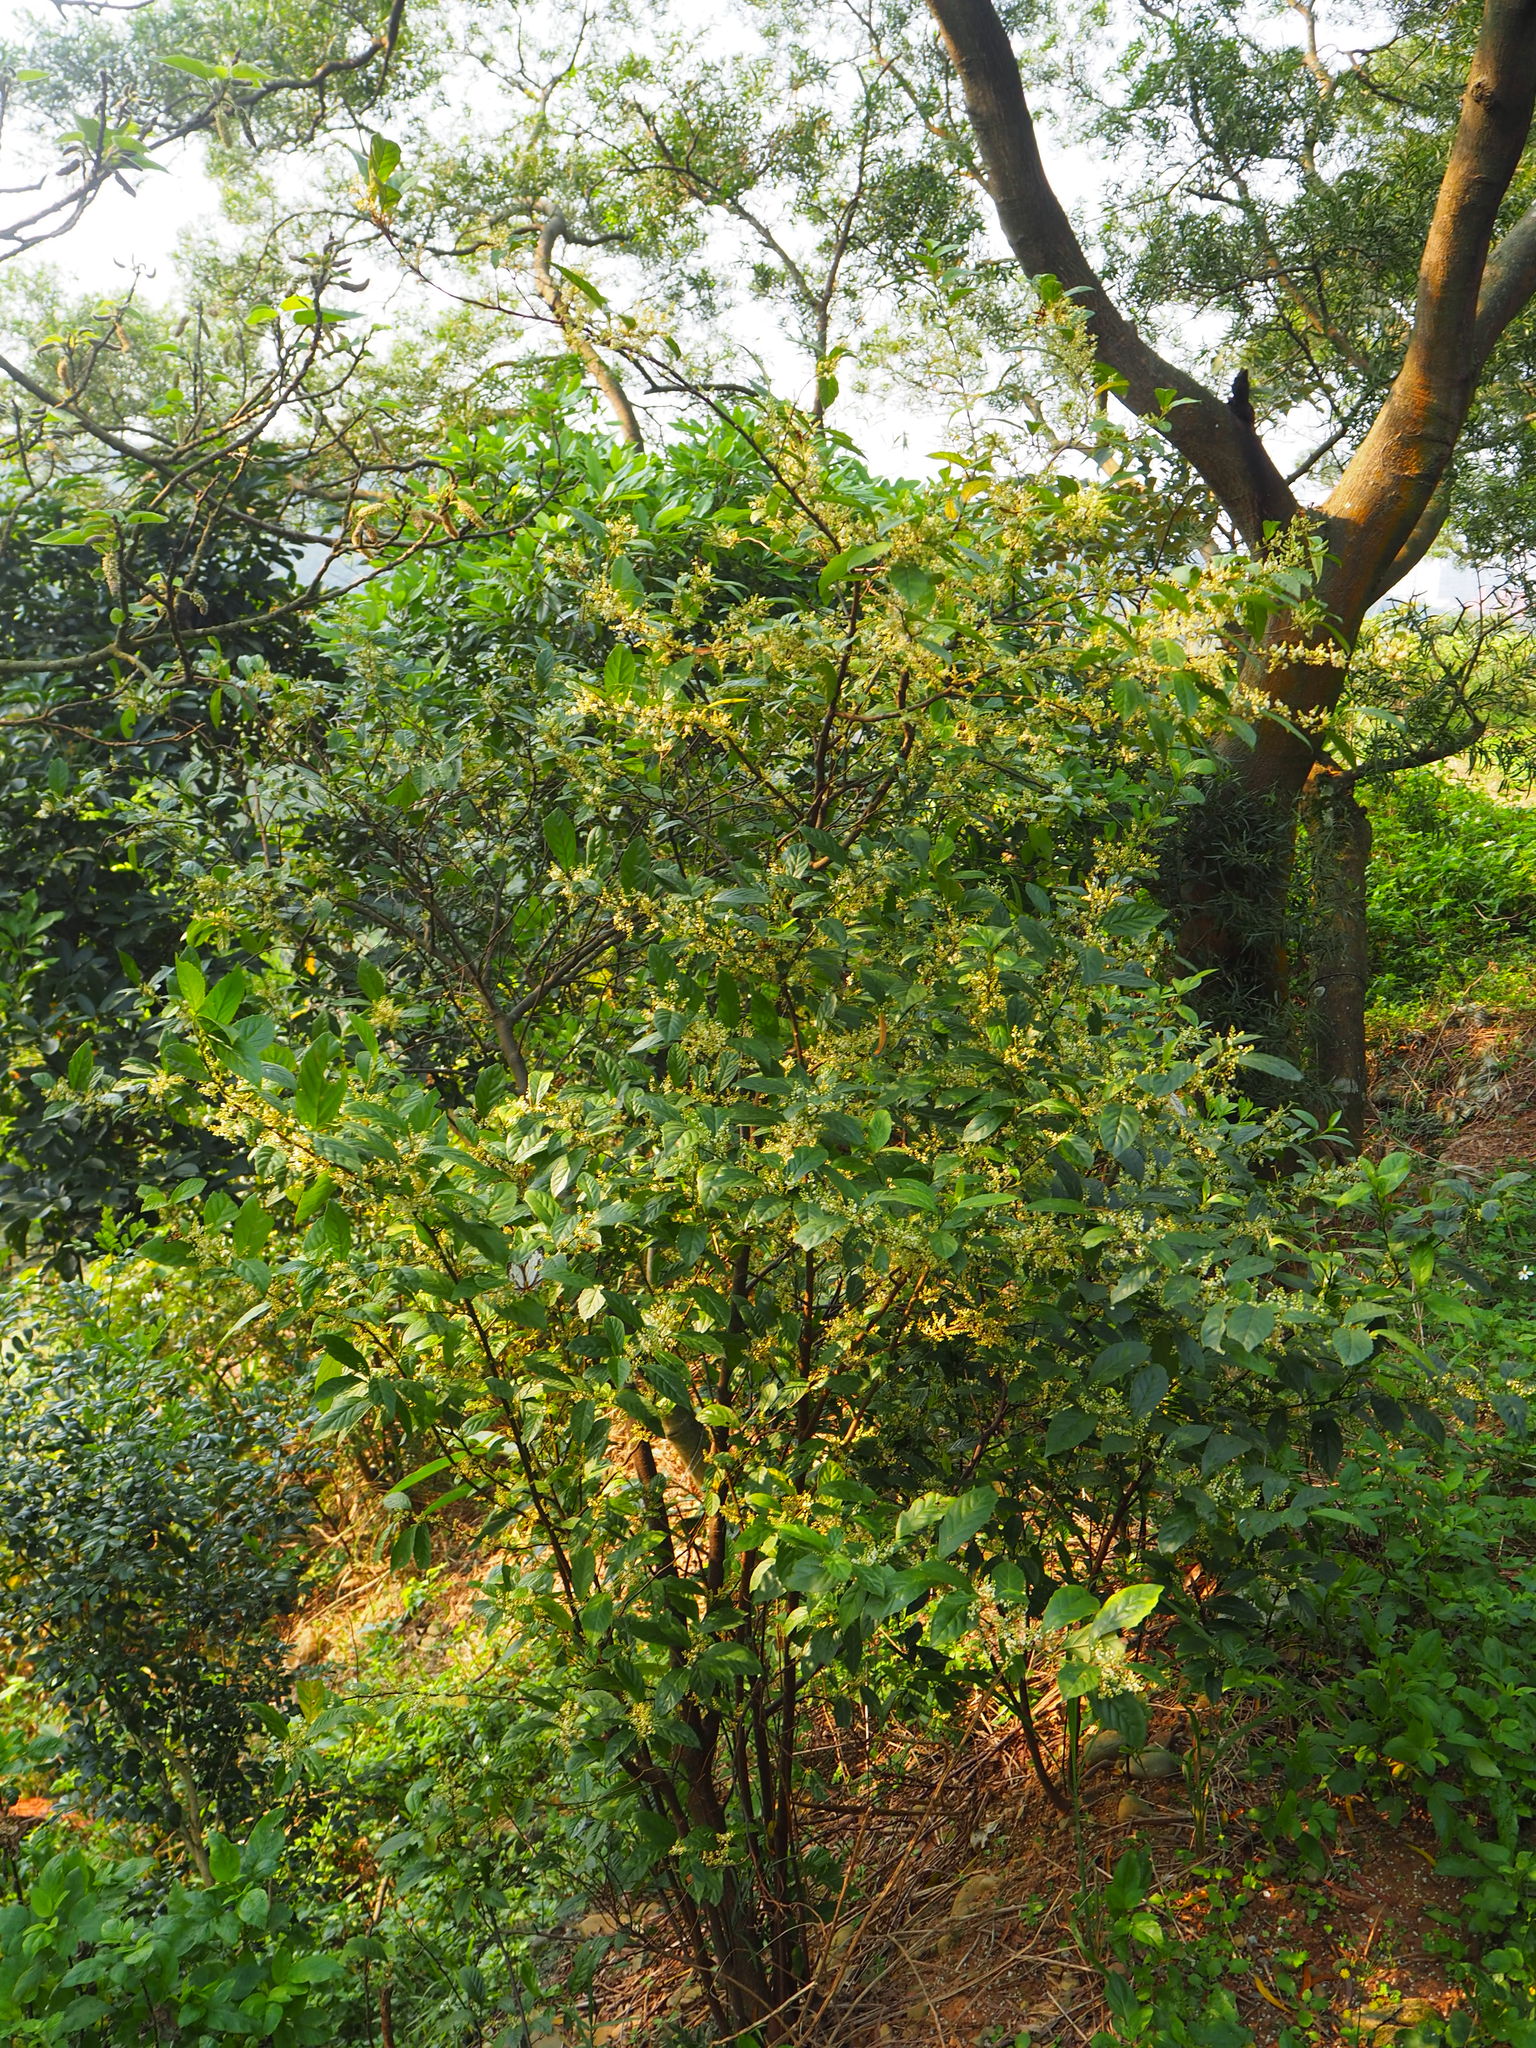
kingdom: Plantae
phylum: Tracheophyta
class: Magnoliopsida
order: Ericales
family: Primulaceae
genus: Maesa
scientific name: Maesa perlaria
